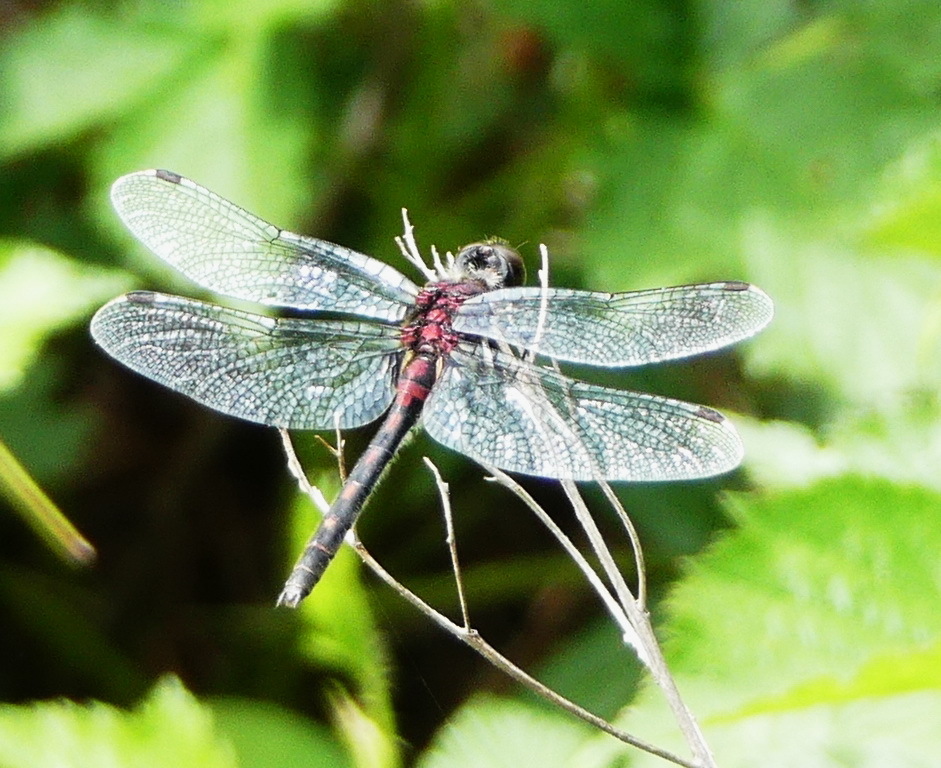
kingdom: Animalia
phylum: Arthropoda
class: Insecta
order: Odonata
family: Libellulidae
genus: Leucorrhinia
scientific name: Leucorrhinia glacialis
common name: Crimson-ringed whiteface
